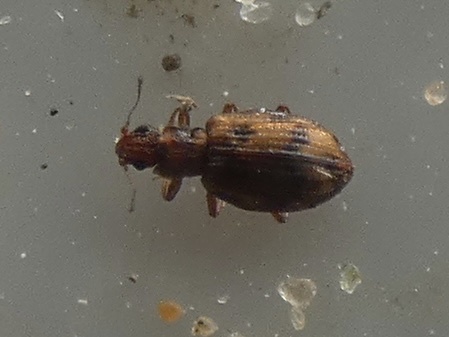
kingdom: Animalia
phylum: Arthropoda
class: Insecta
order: Coleoptera
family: Latridiidae
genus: Cartodere
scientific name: Cartodere bifasciata
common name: Plaster beetle
